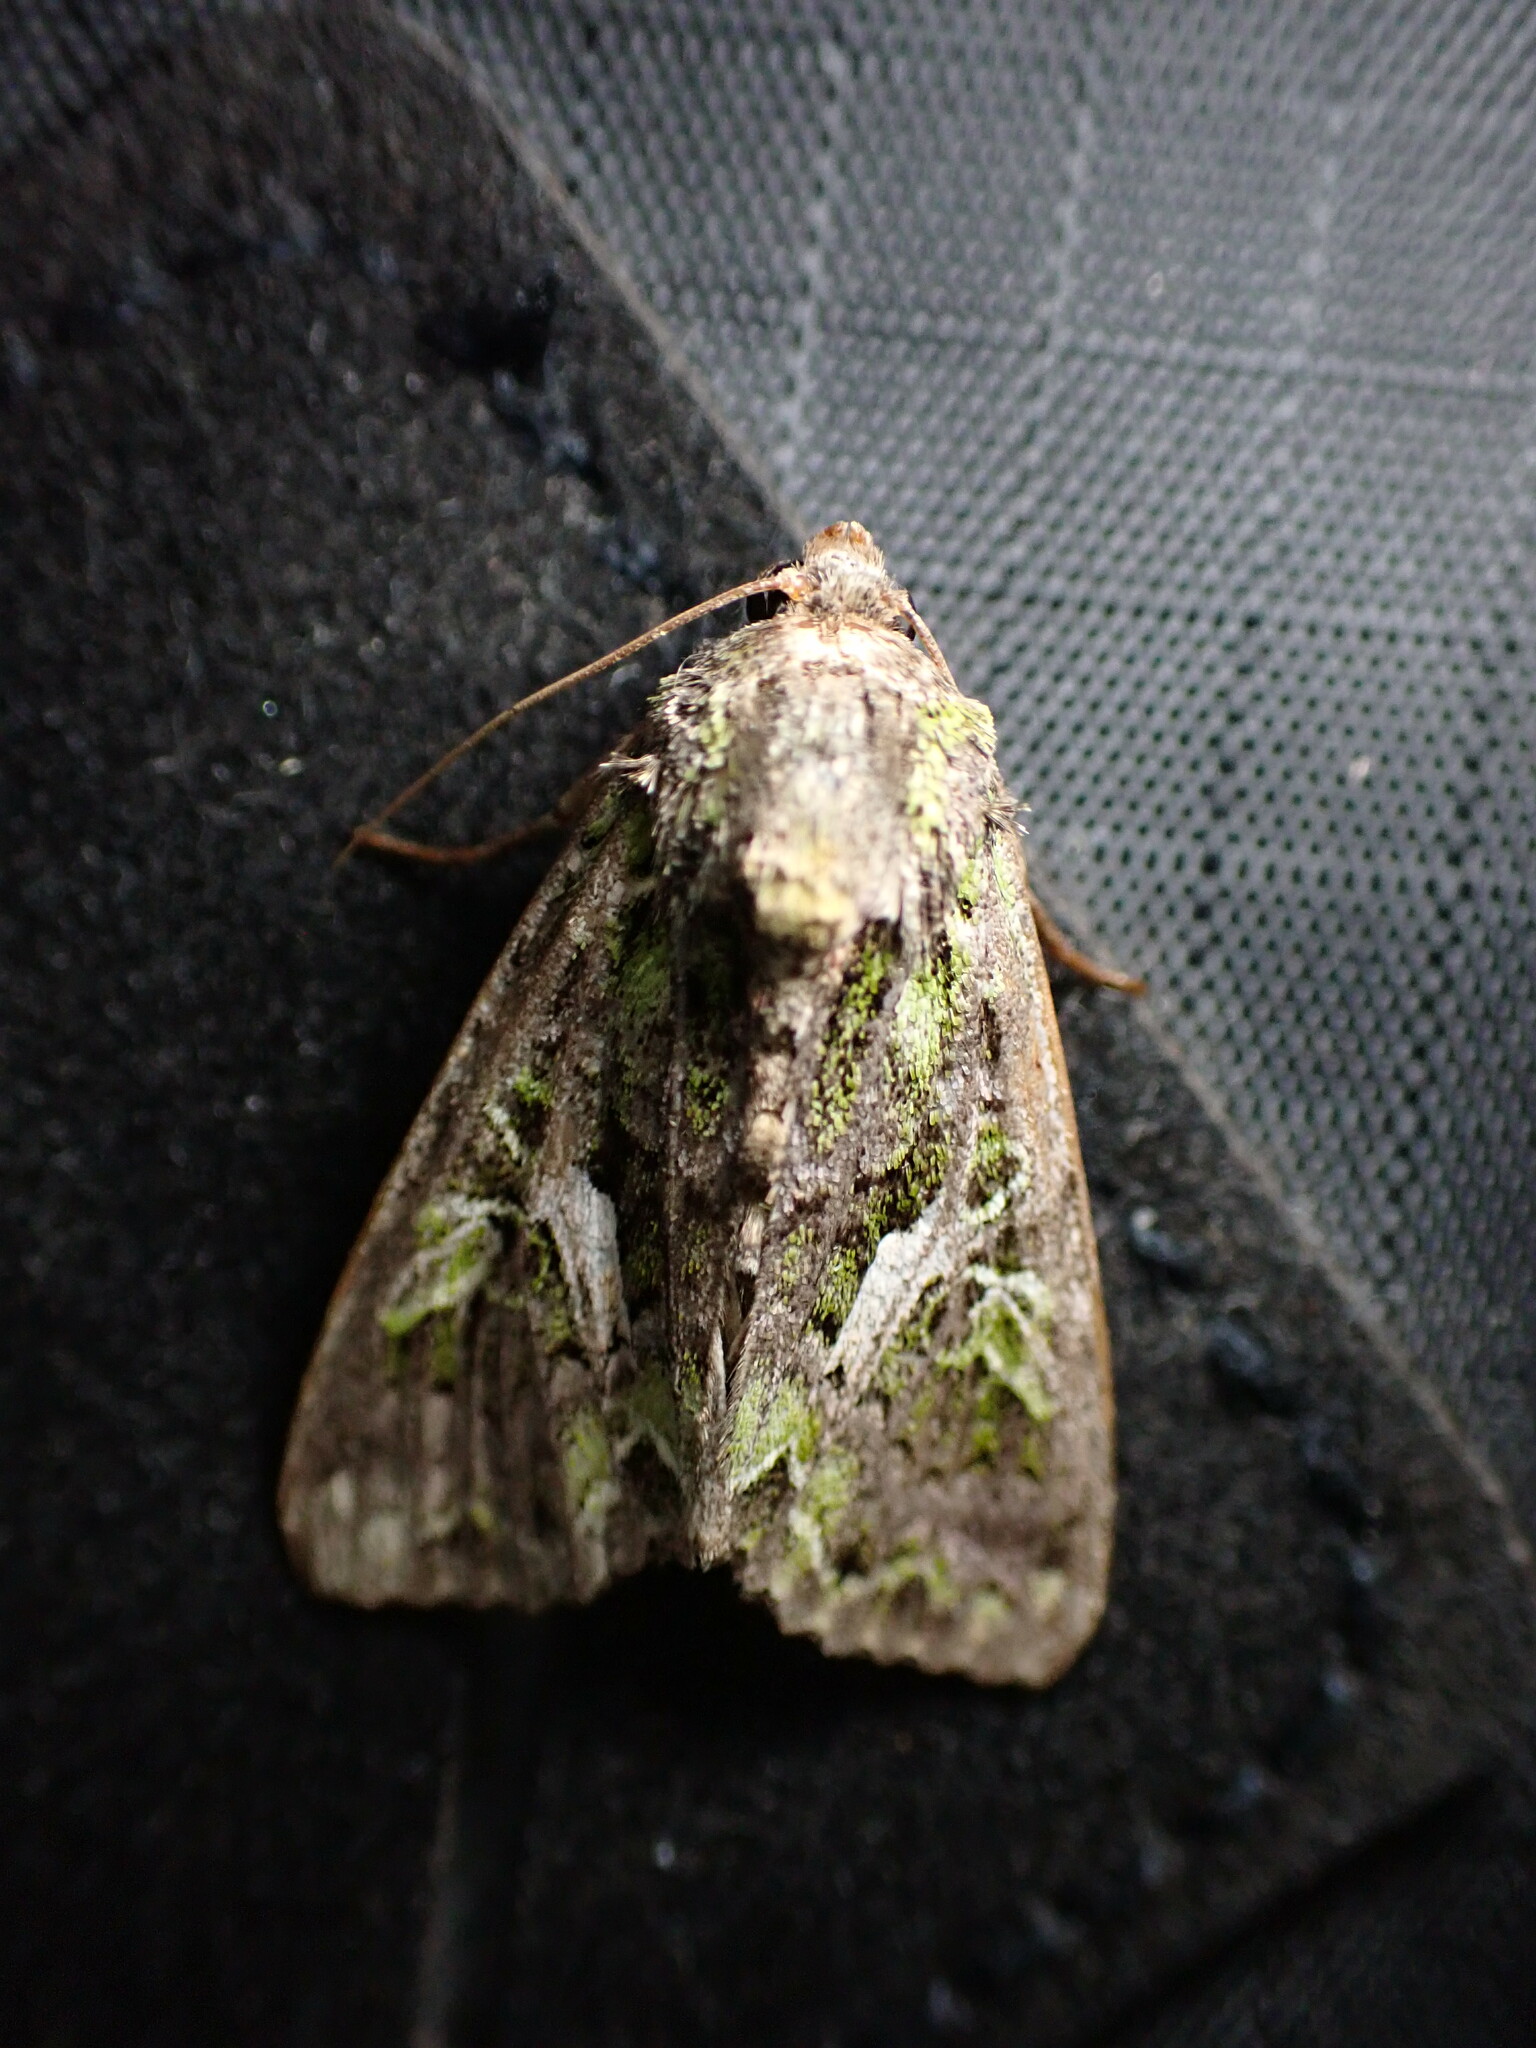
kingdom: Animalia
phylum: Arthropoda
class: Insecta
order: Lepidoptera
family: Noctuidae
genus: Trachea
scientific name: Trachea atriplicis
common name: Orache moth
